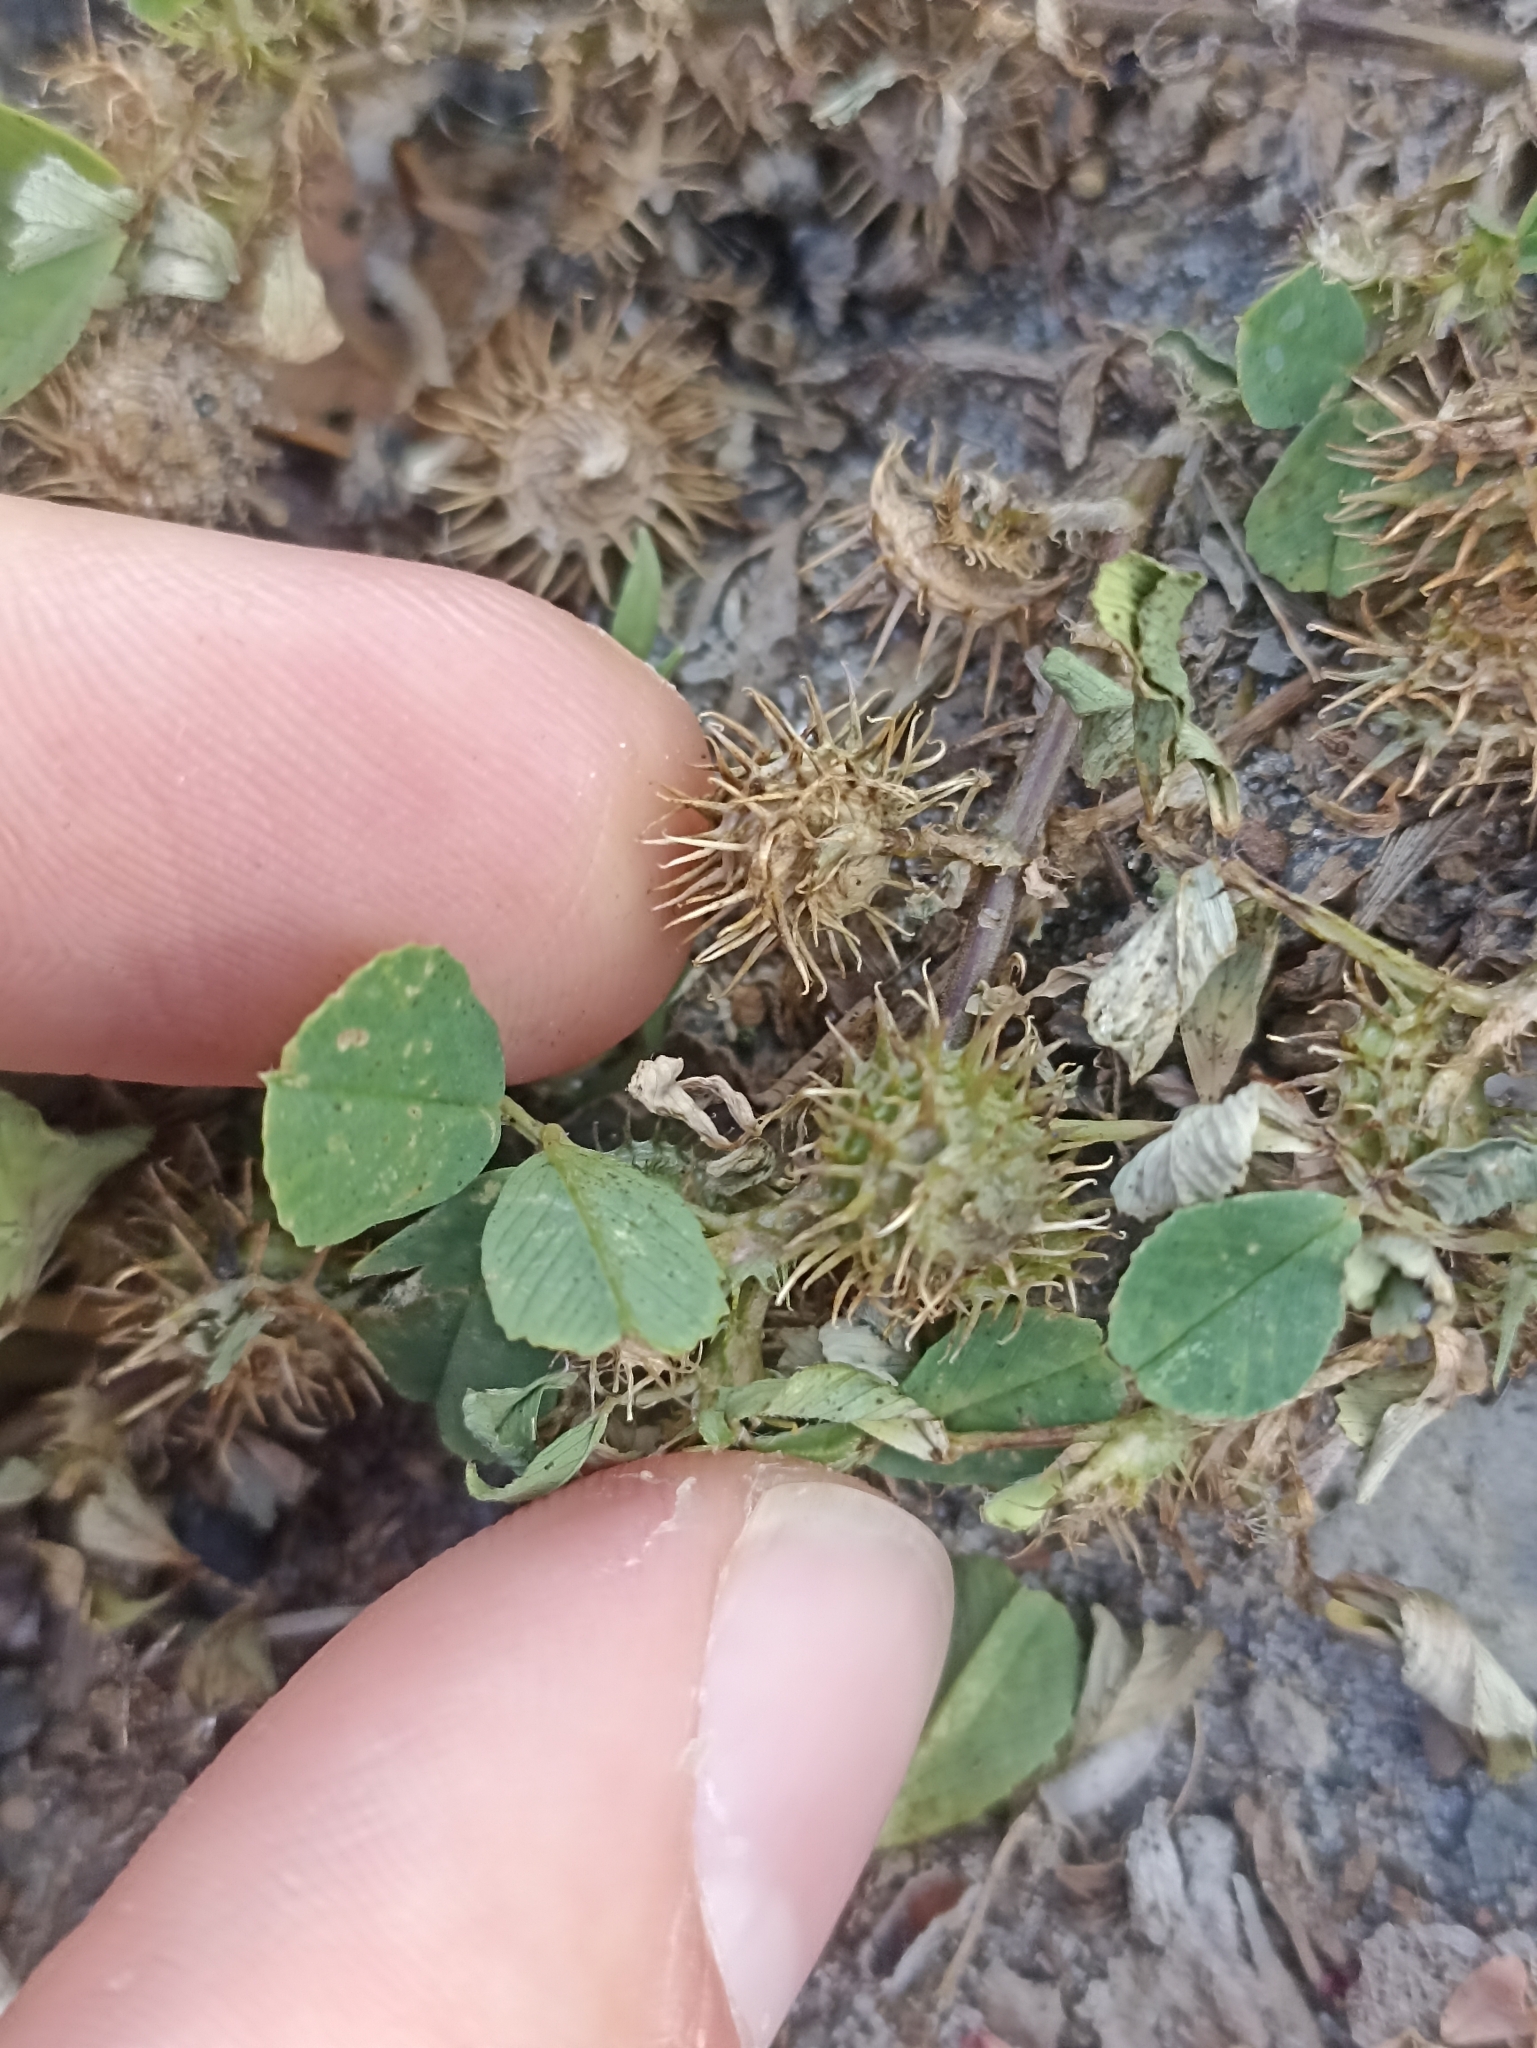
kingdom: Plantae
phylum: Tracheophyta
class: Magnoliopsida
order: Fabales
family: Fabaceae
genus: Medicago
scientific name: Medicago polymorpha
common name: Burclover
